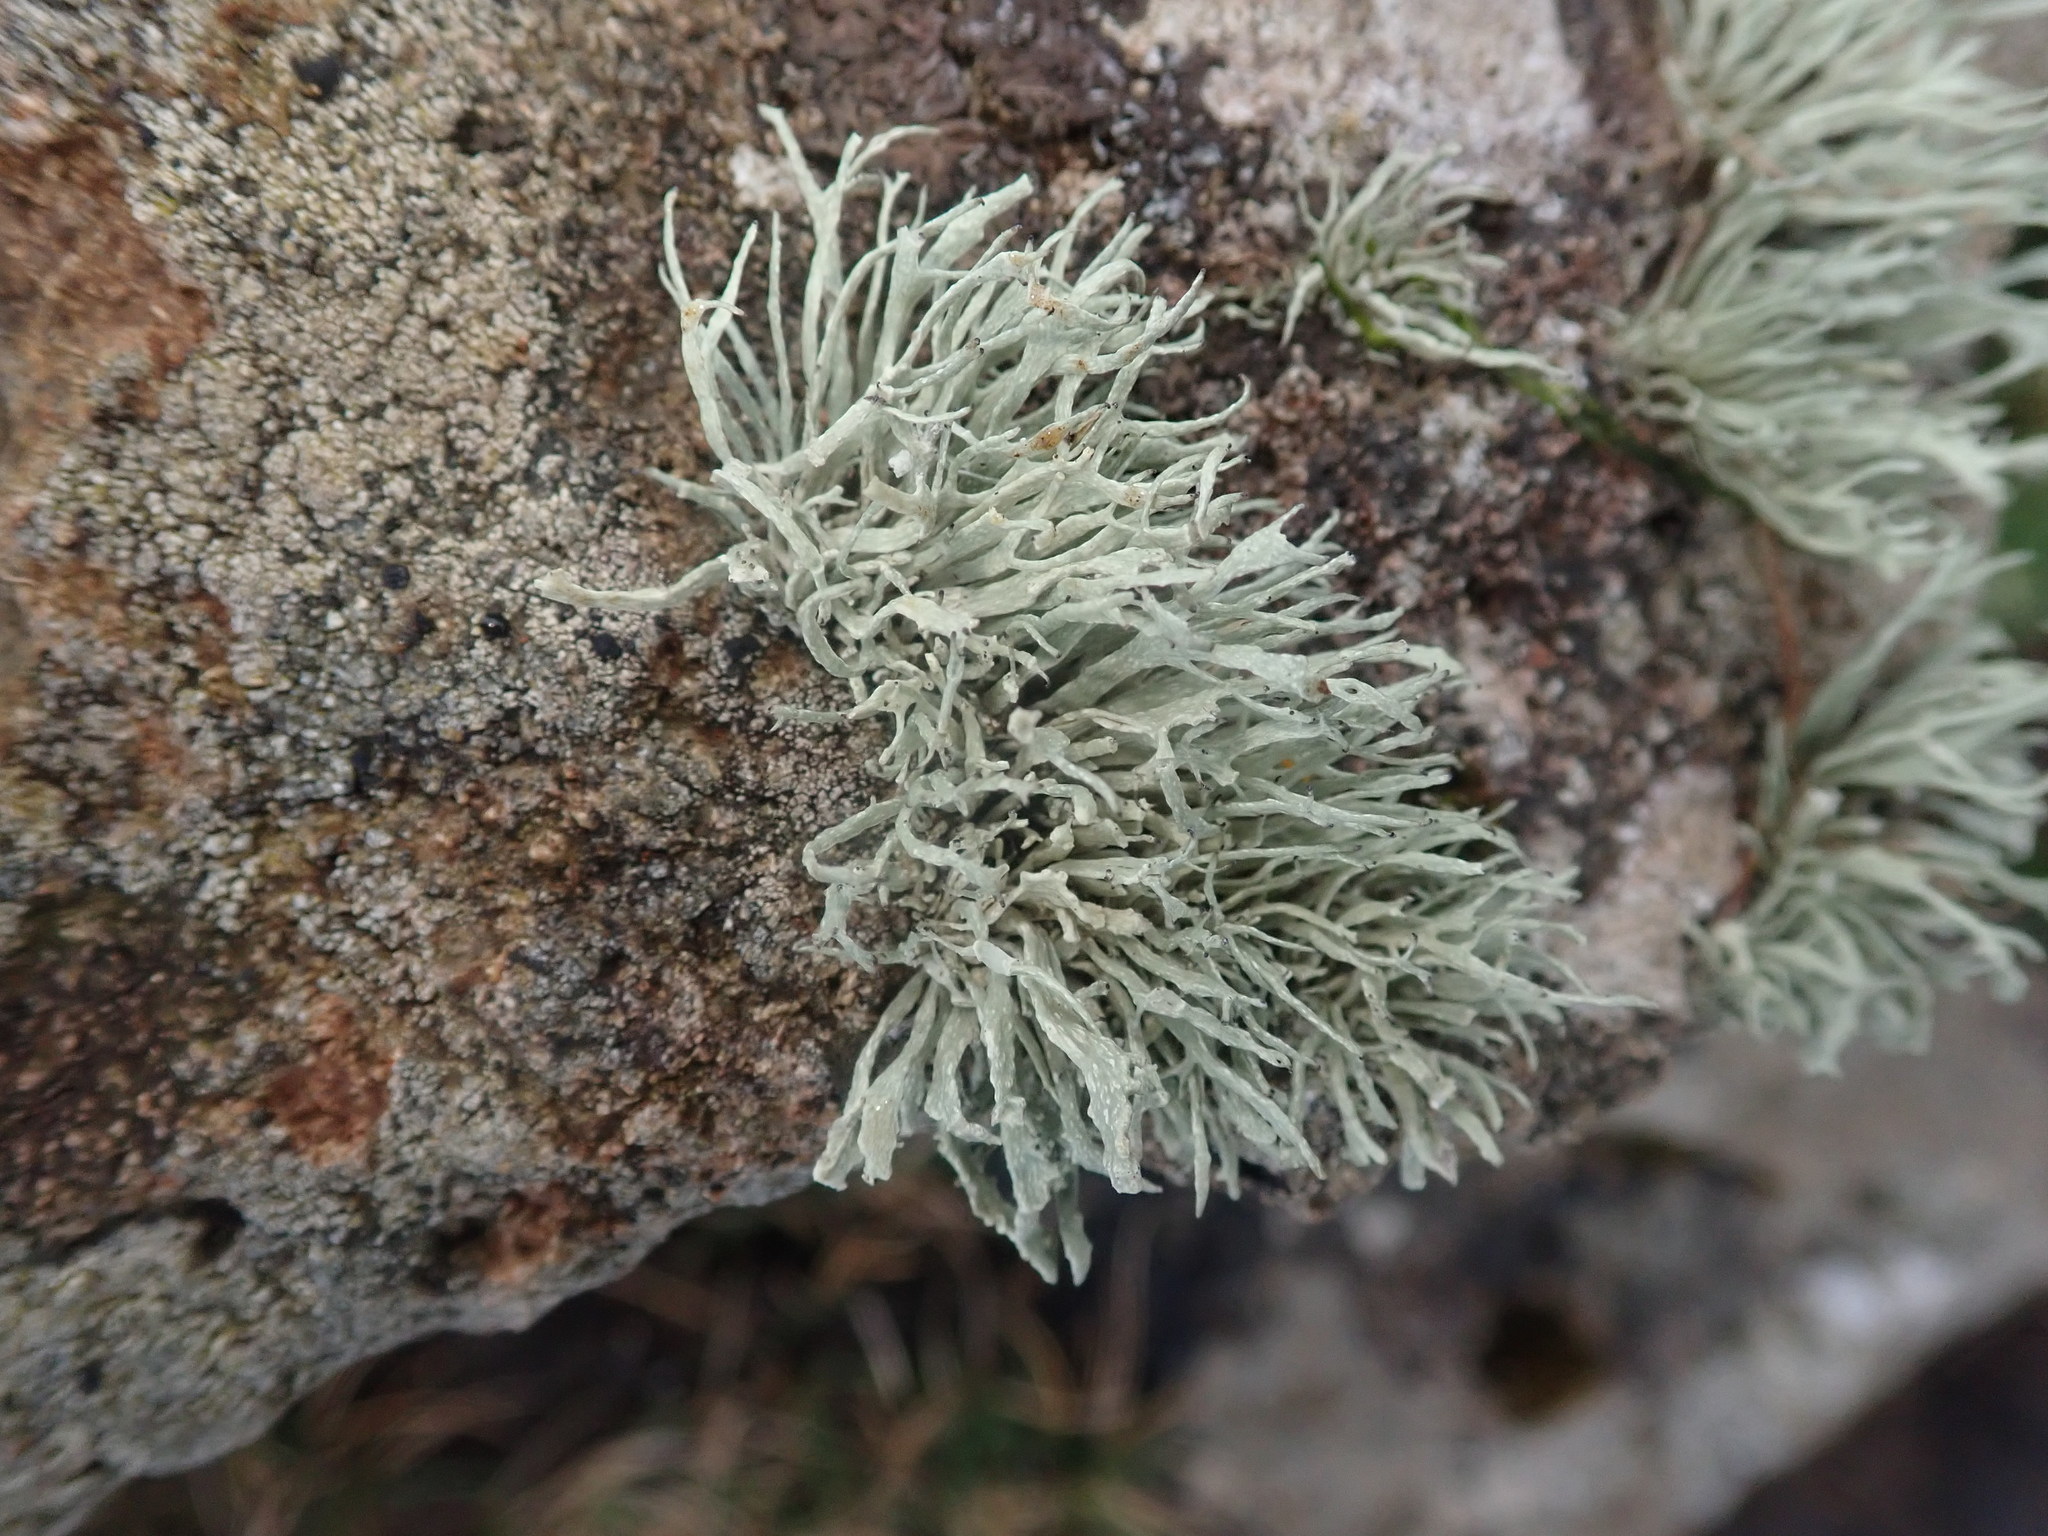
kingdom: Fungi
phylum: Ascomycota
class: Lecanoromycetes
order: Lecanorales
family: Ramalinaceae
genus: Ramalina
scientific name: Ramalina siliquosa
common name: Sea ivory
